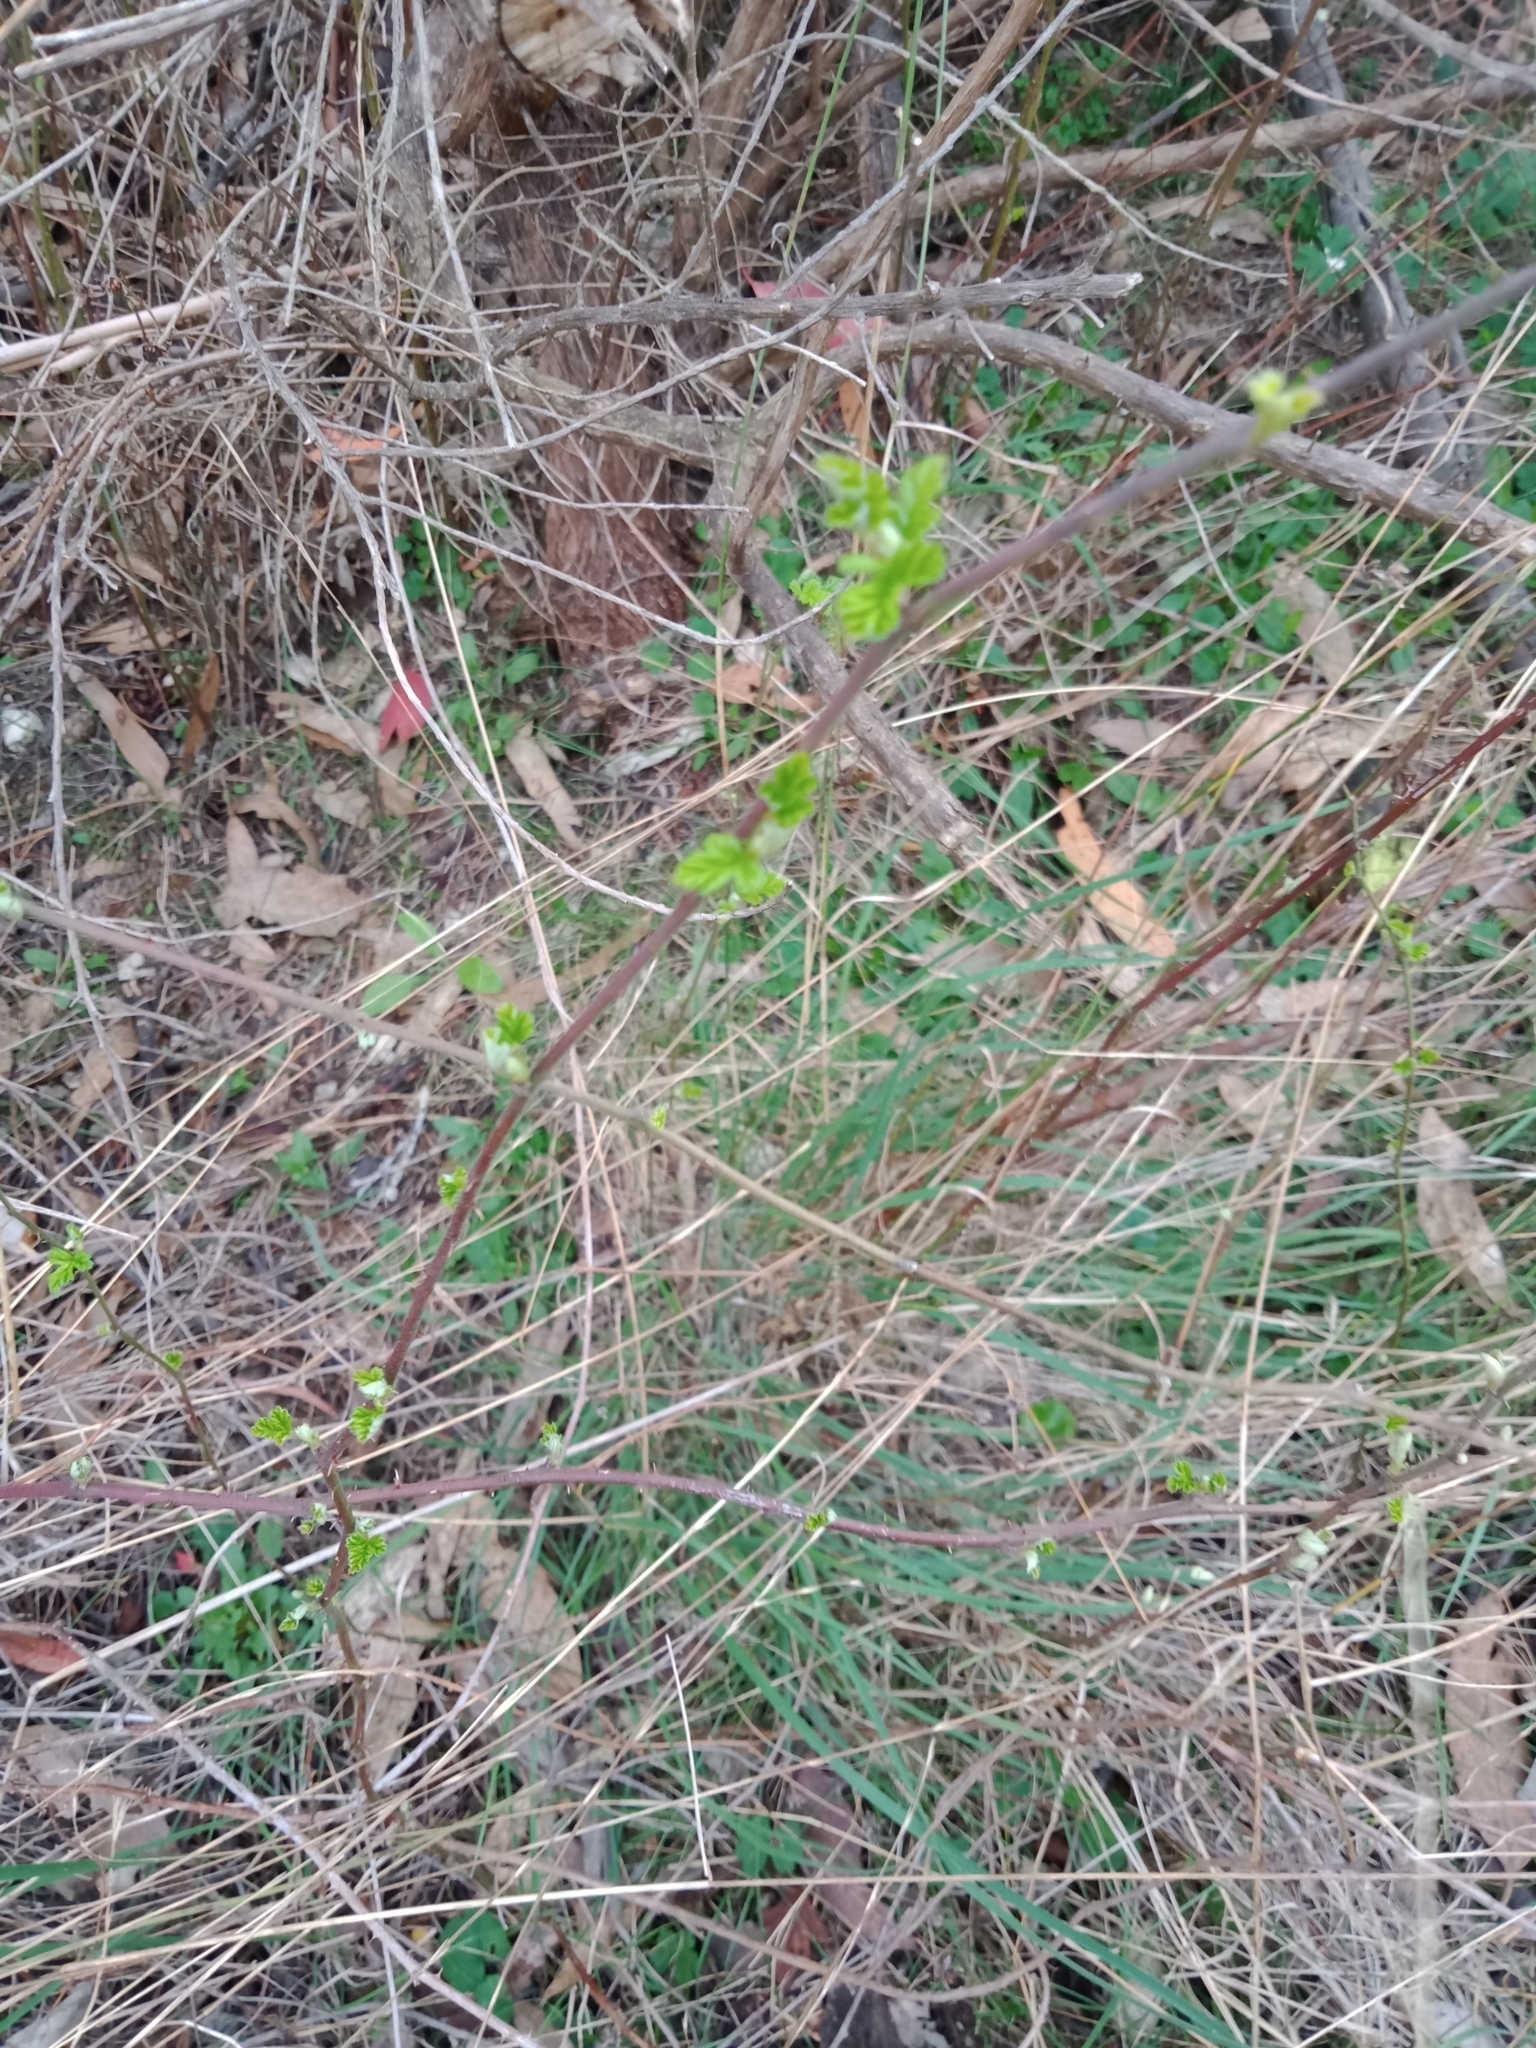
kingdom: Plantae
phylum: Tracheophyta
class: Magnoliopsida
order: Rosales
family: Rosaceae
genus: Rubus
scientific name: Rubus parvifolius
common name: Threeleaf blackberry
